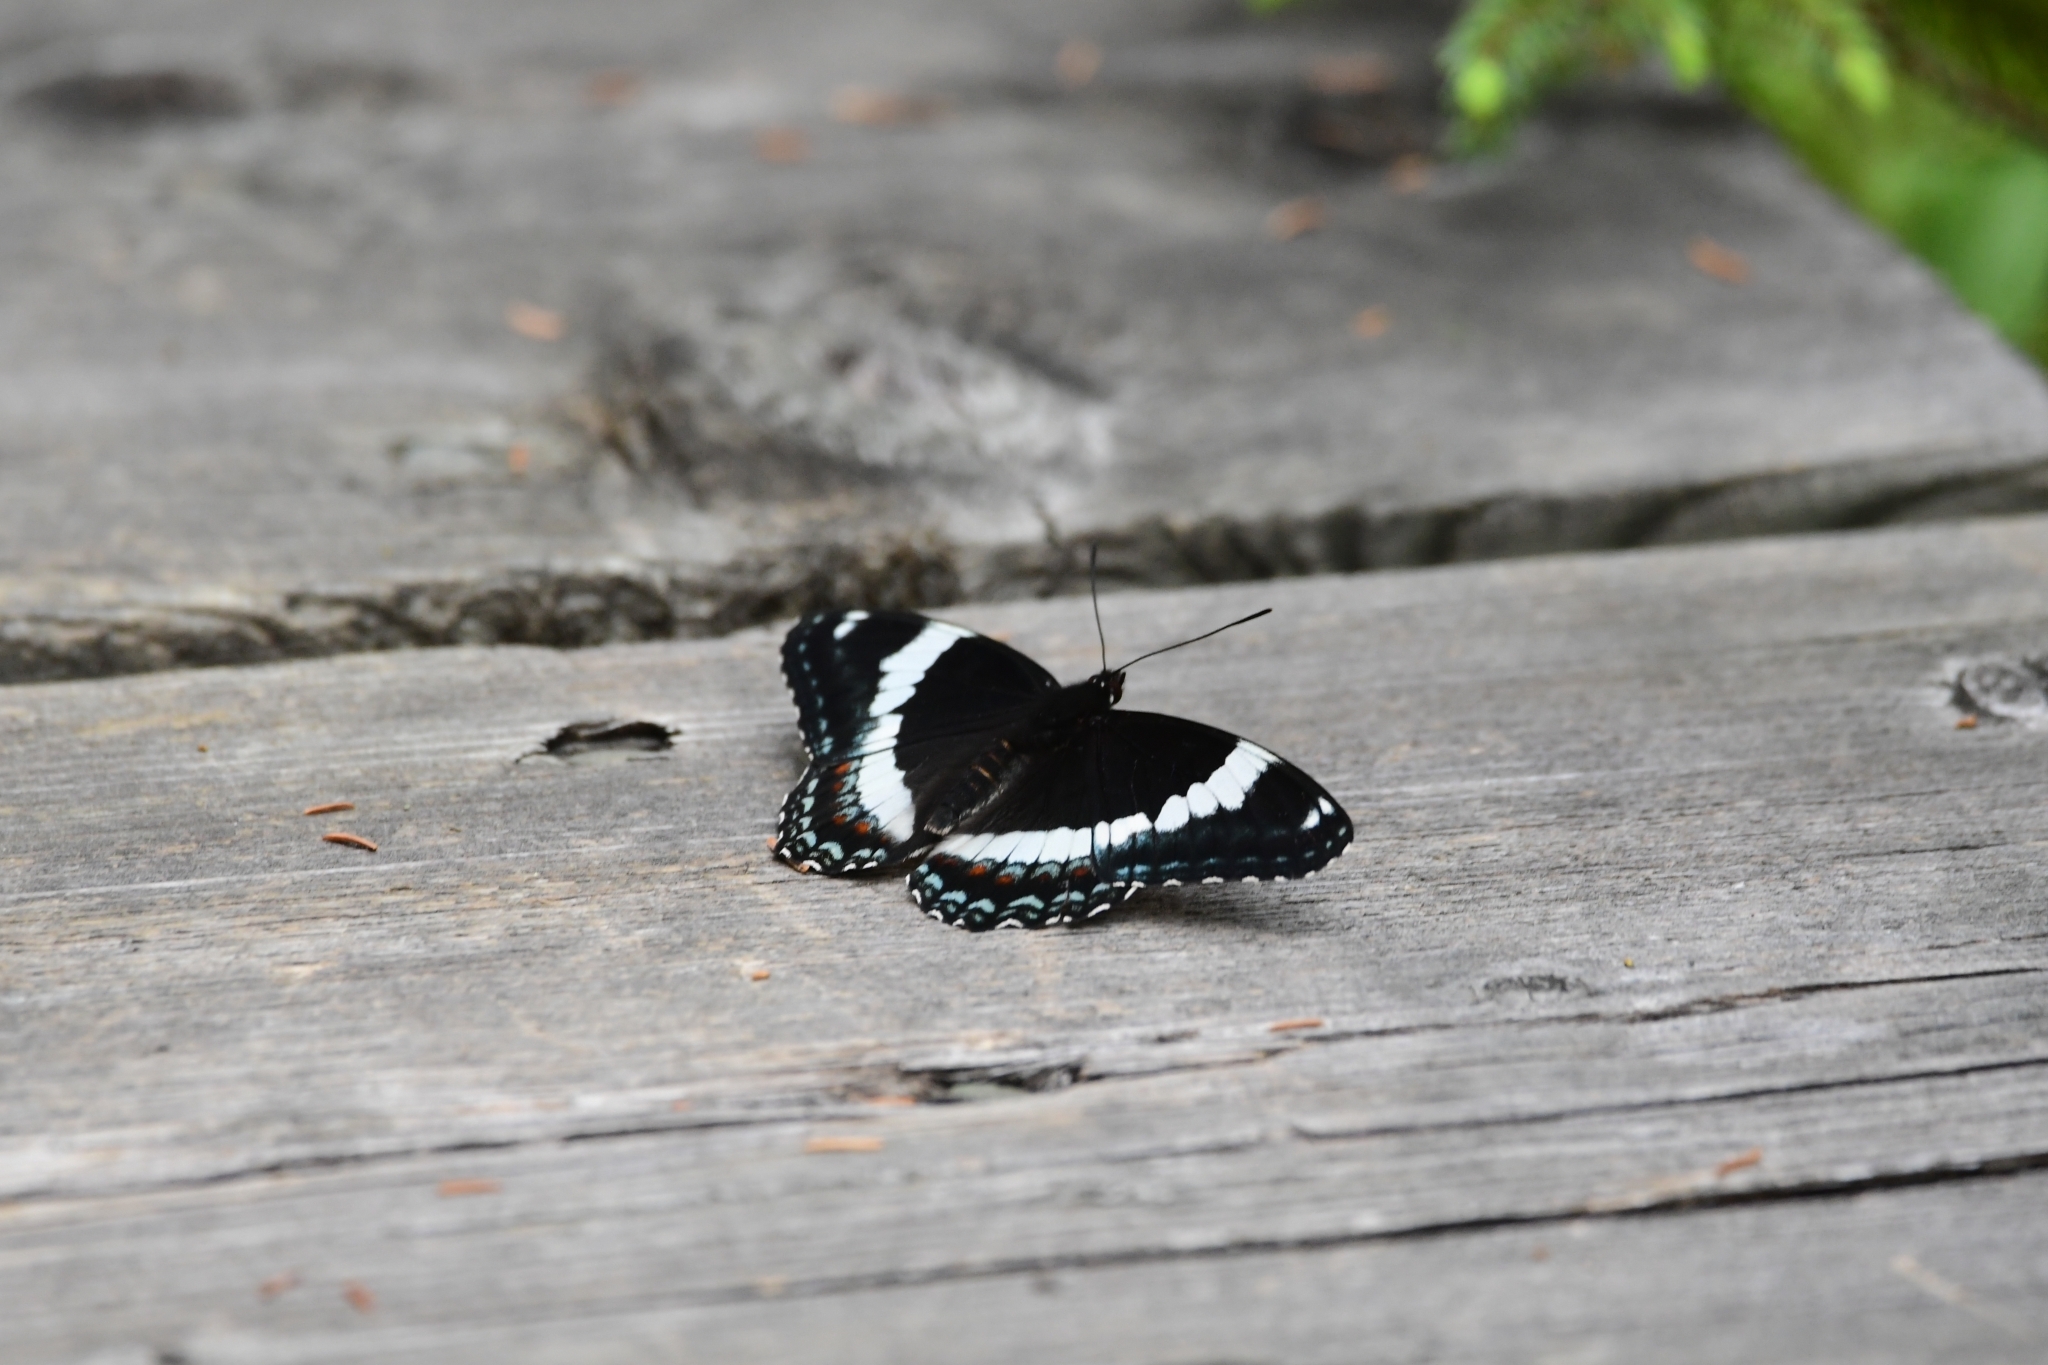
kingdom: Animalia
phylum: Arthropoda
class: Insecta
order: Lepidoptera
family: Nymphalidae
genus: Limenitis
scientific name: Limenitis arthemis
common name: Red-spotted admiral
